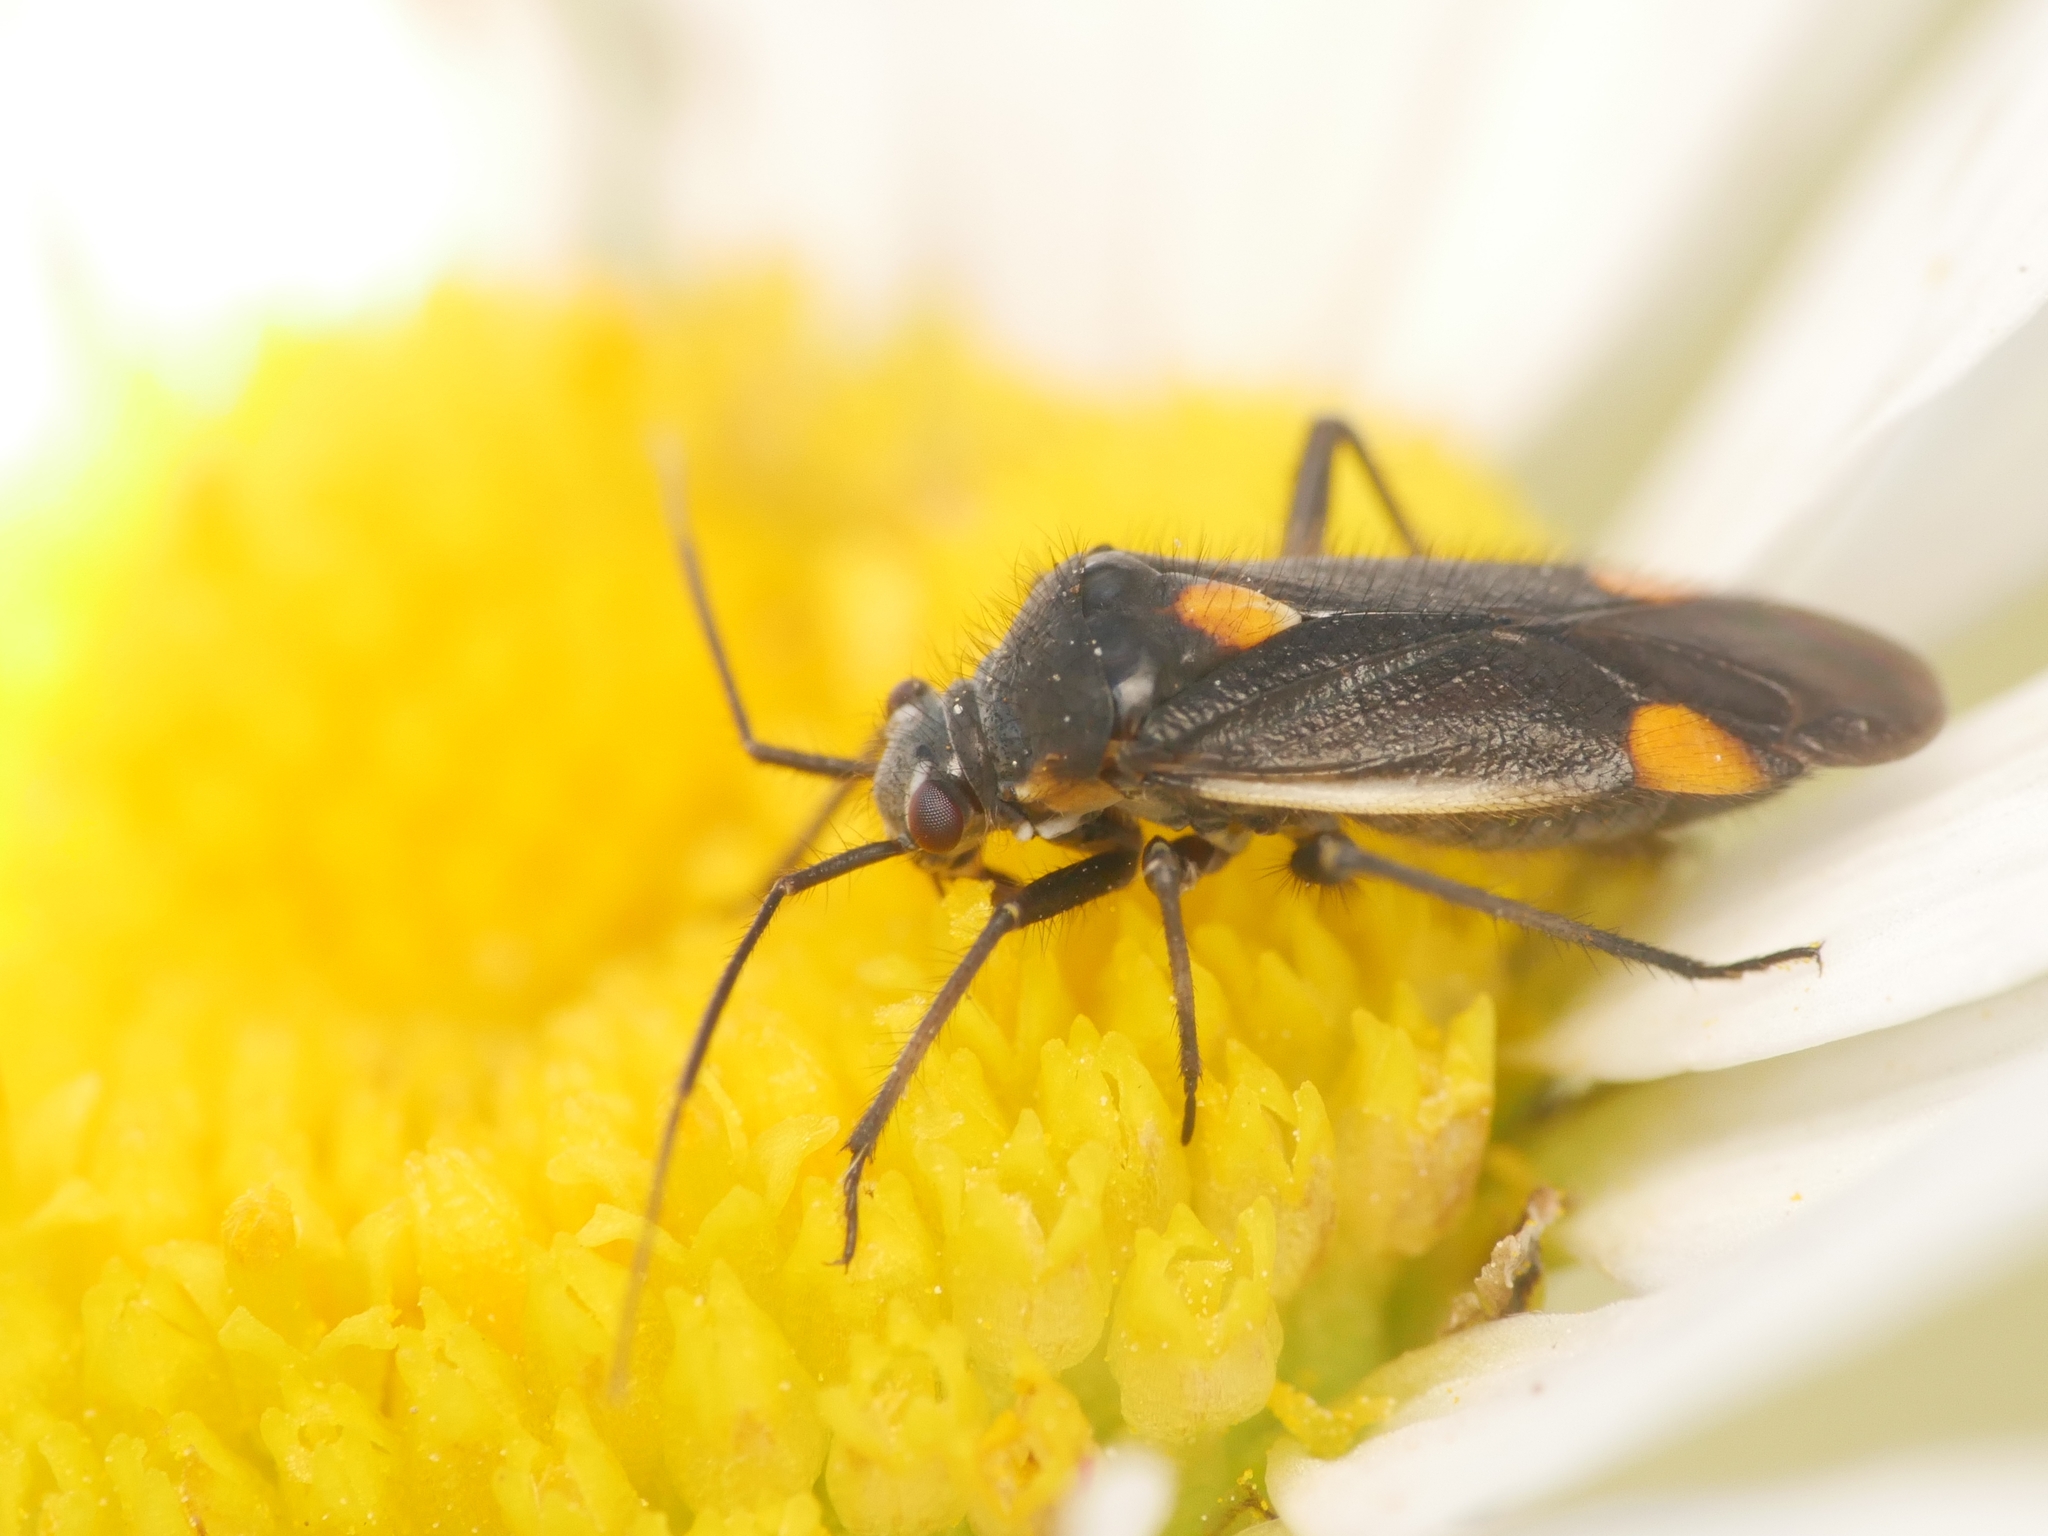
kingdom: Animalia
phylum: Arthropoda
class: Insecta
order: Hemiptera
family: Miridae
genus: Capsodes
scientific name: Capsodes gothicus
